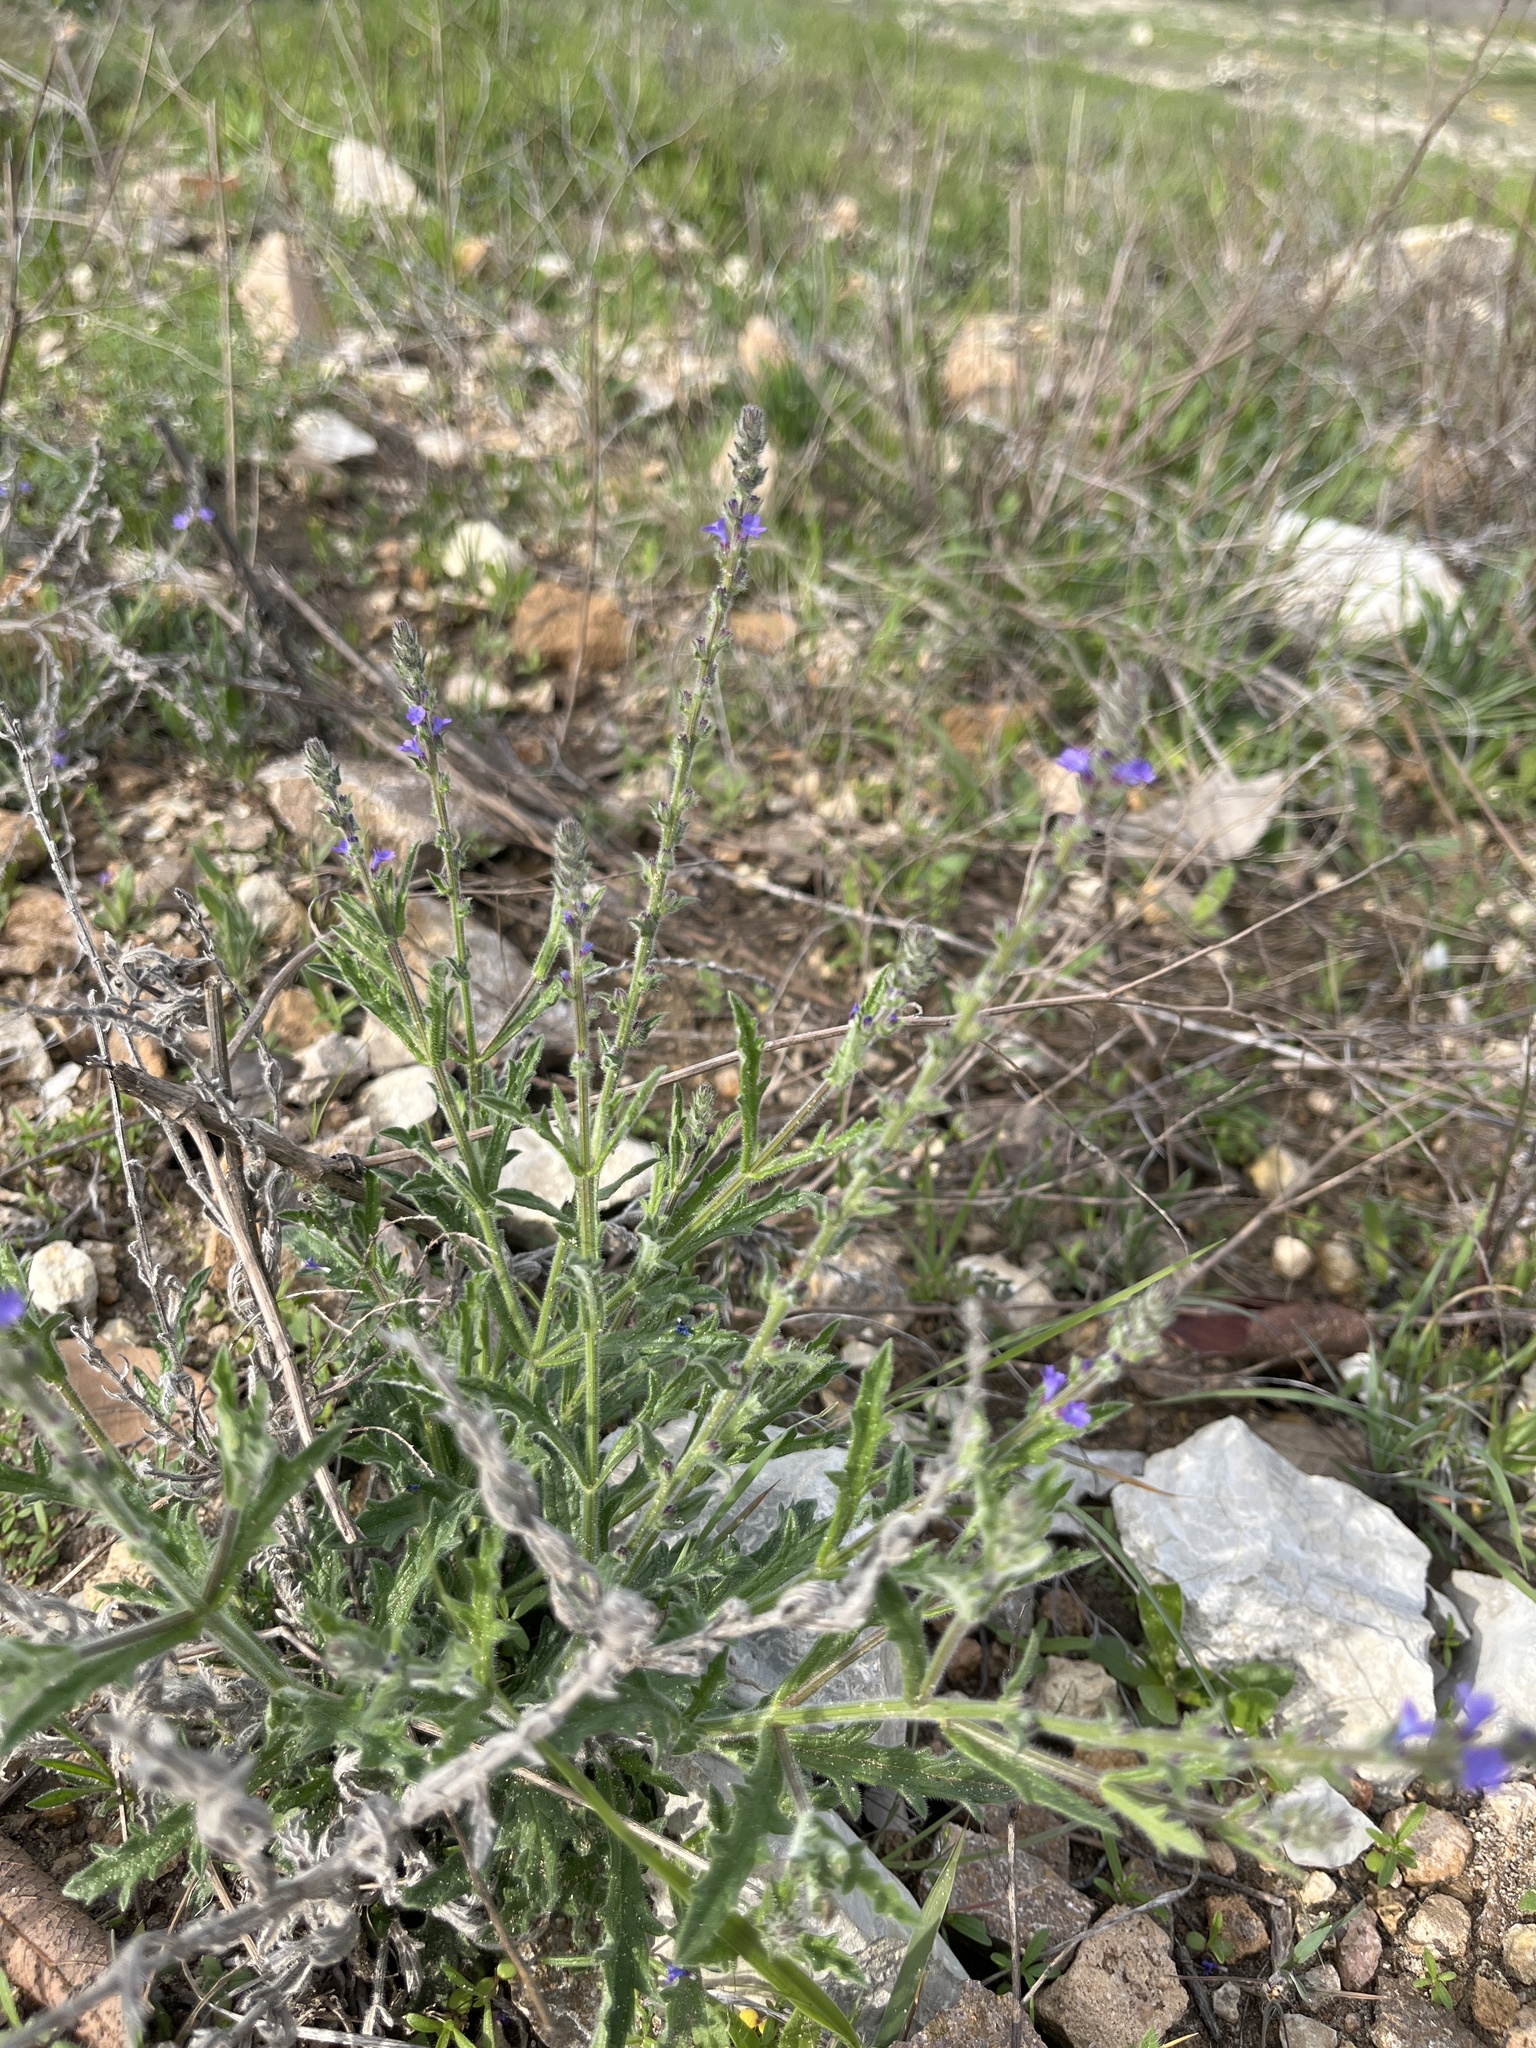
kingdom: Plantae
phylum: Tracheophyta
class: Magnoliopsida
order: Lamiales
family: Verbenaceae
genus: Verbena
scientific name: Verbena canescens
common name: Gray vervain
